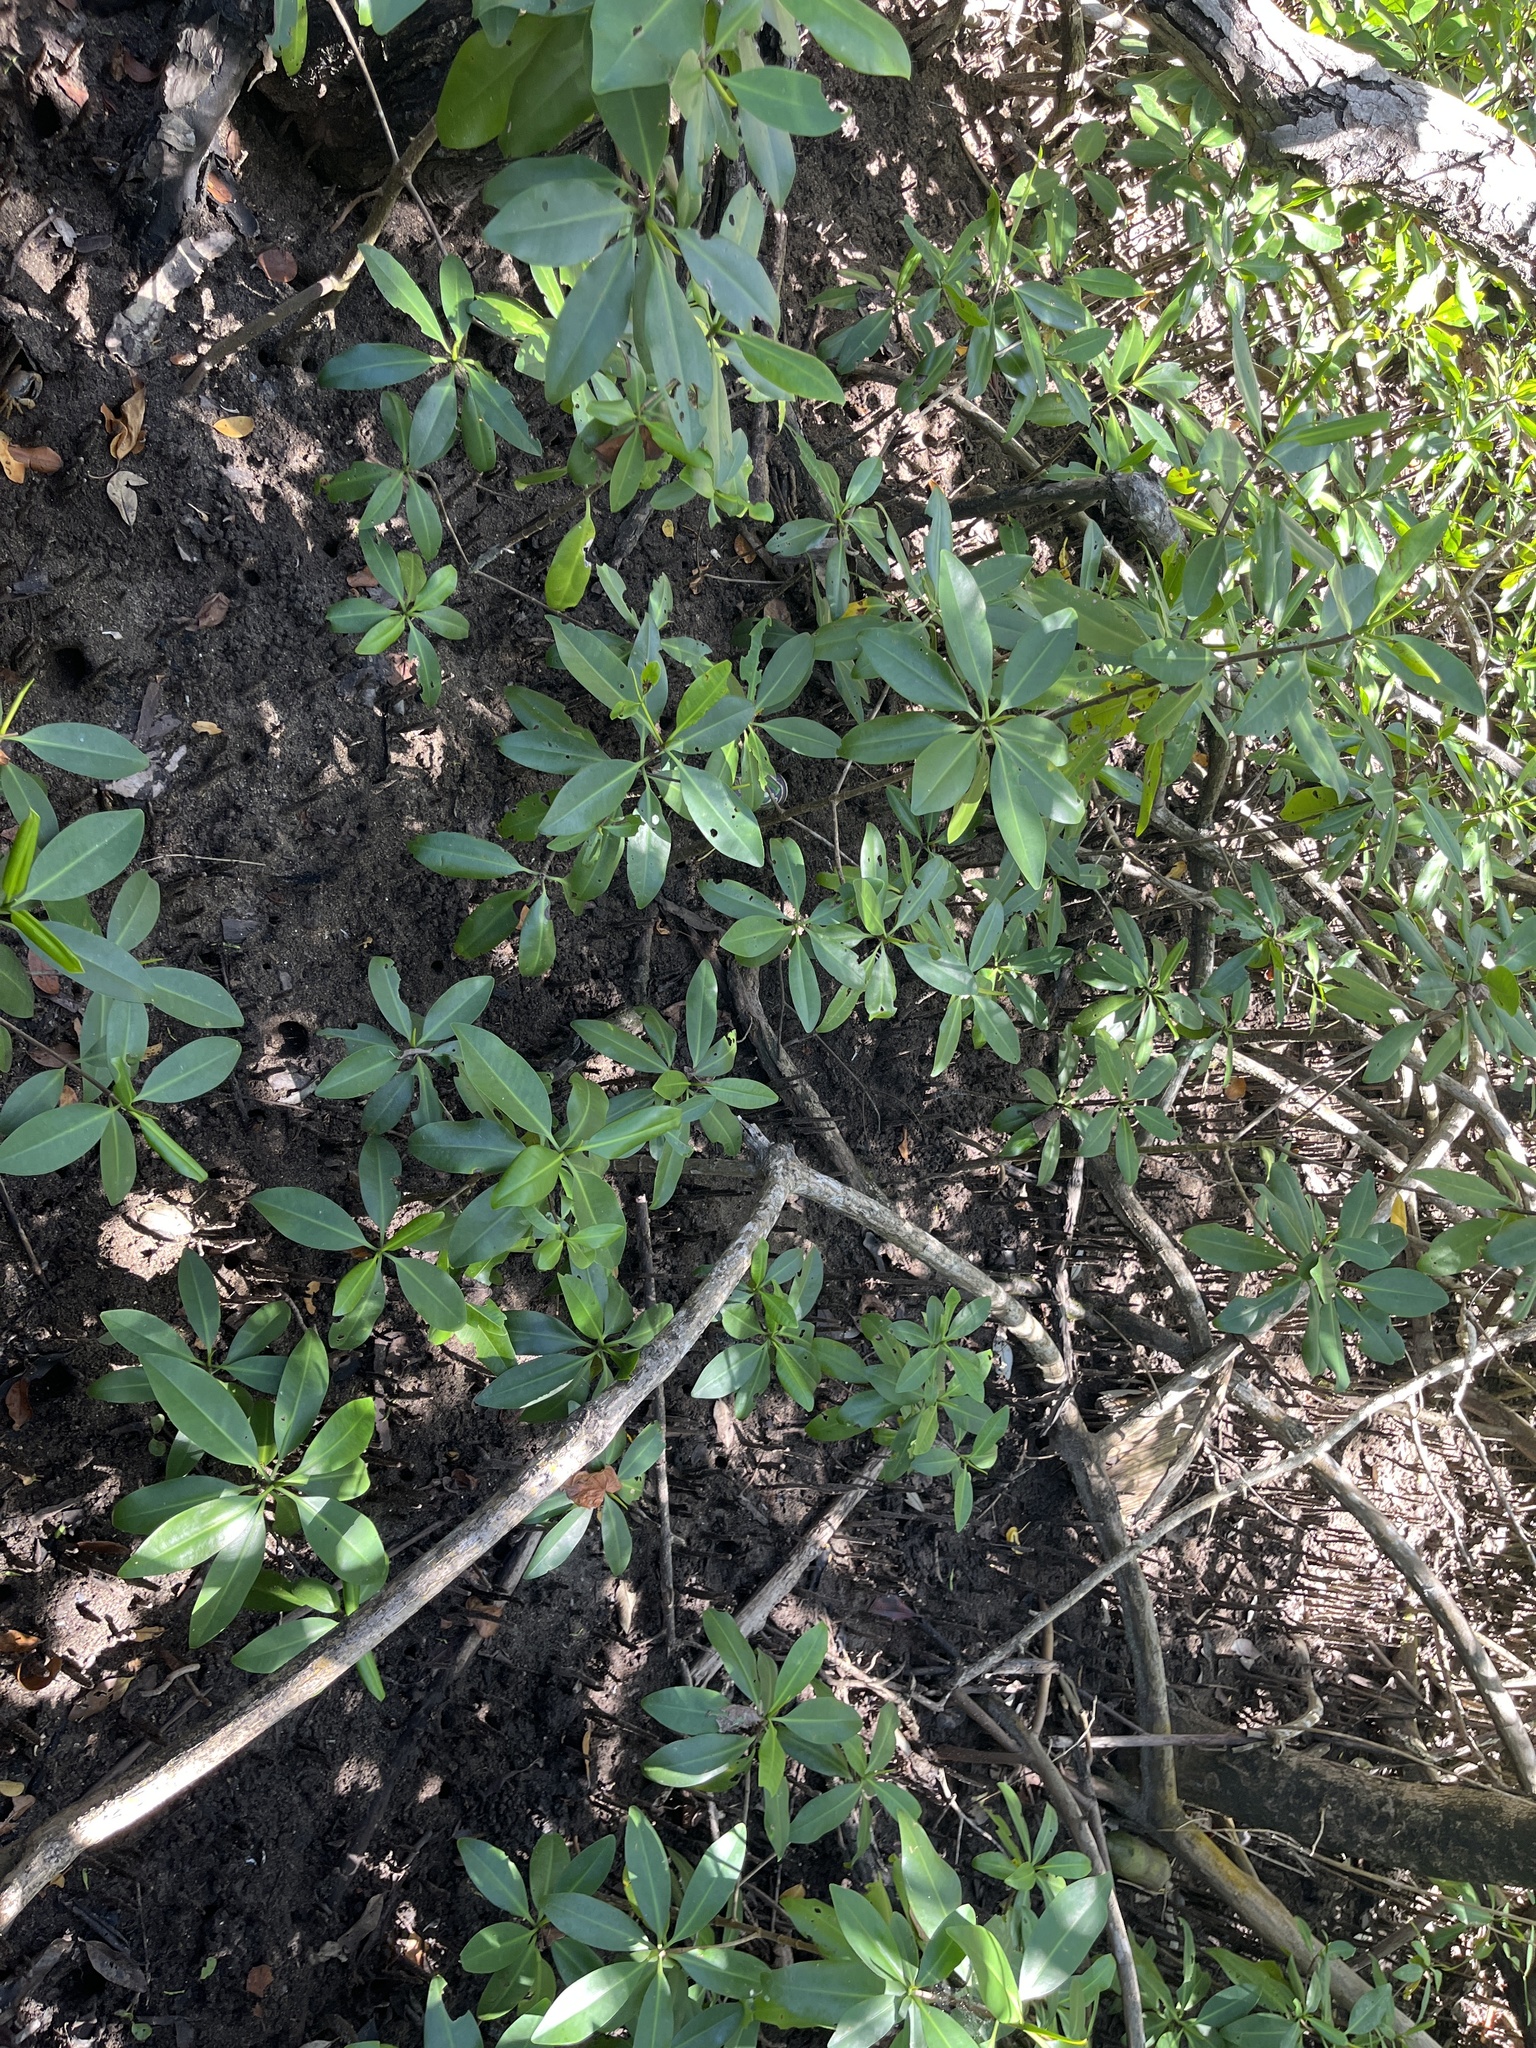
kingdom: Plantae
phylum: Tracheophyta
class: Magnoliopsida
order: Malpighiales
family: Rhizophoraceae
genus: Rhizophora
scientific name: Rhizophora mangle
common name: Red mangrove
